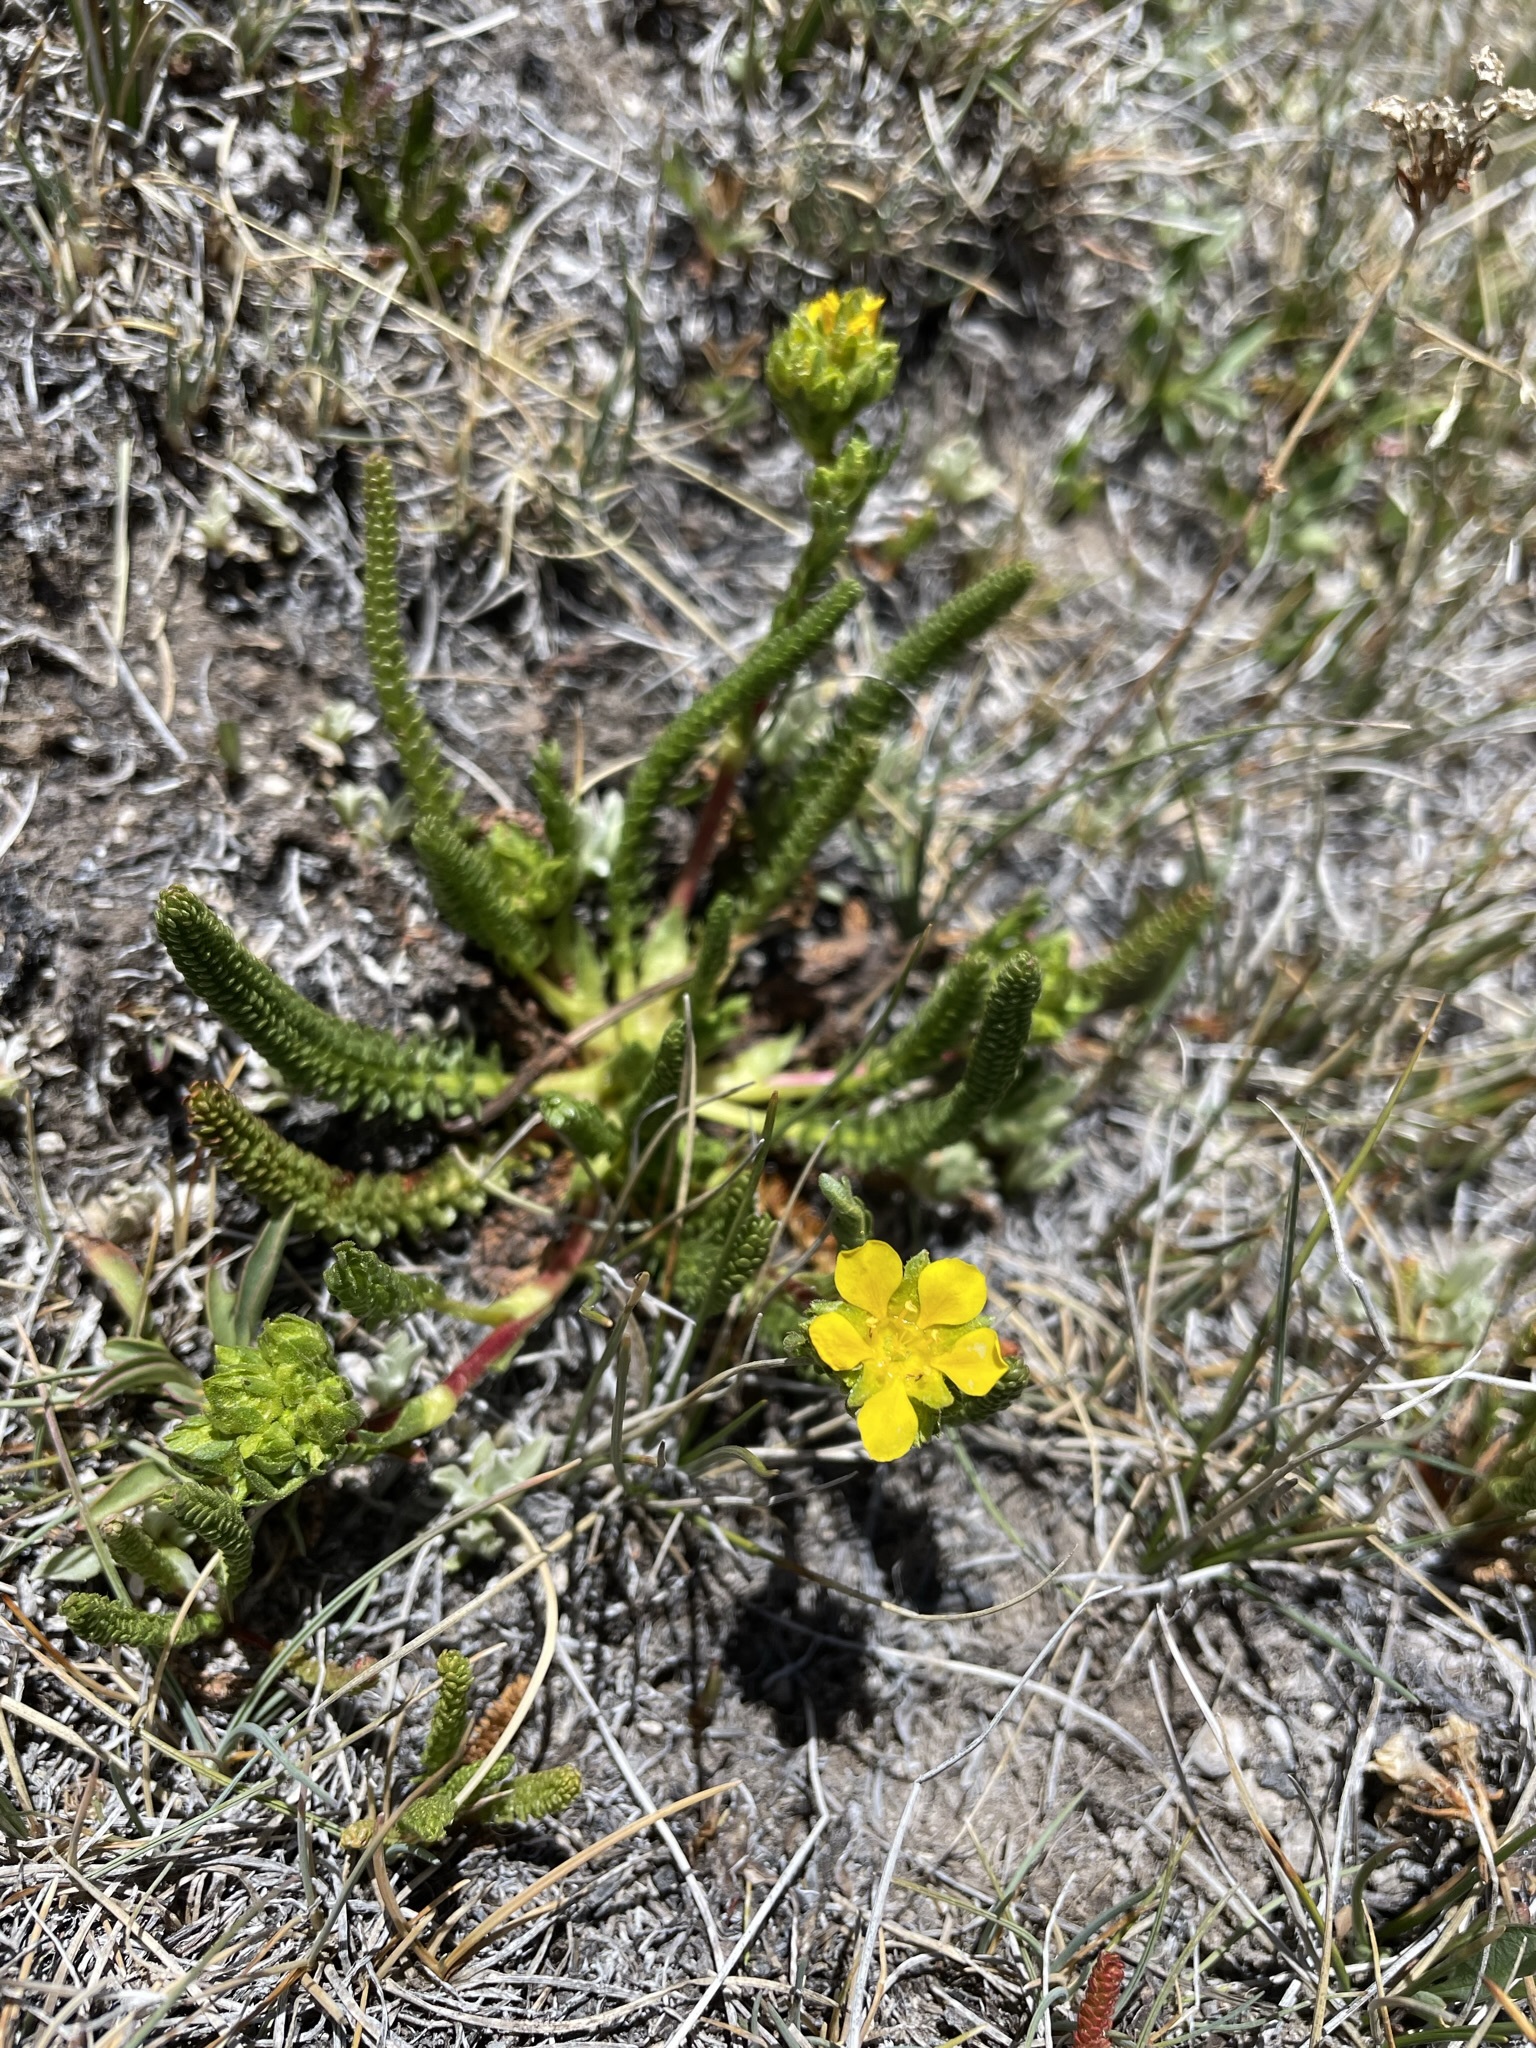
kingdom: Plantae
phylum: Tracheophyta
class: Magnoliopsida
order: Rosales
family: Rosaceae
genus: Potentilla
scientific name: Potentilla lycopodioides
